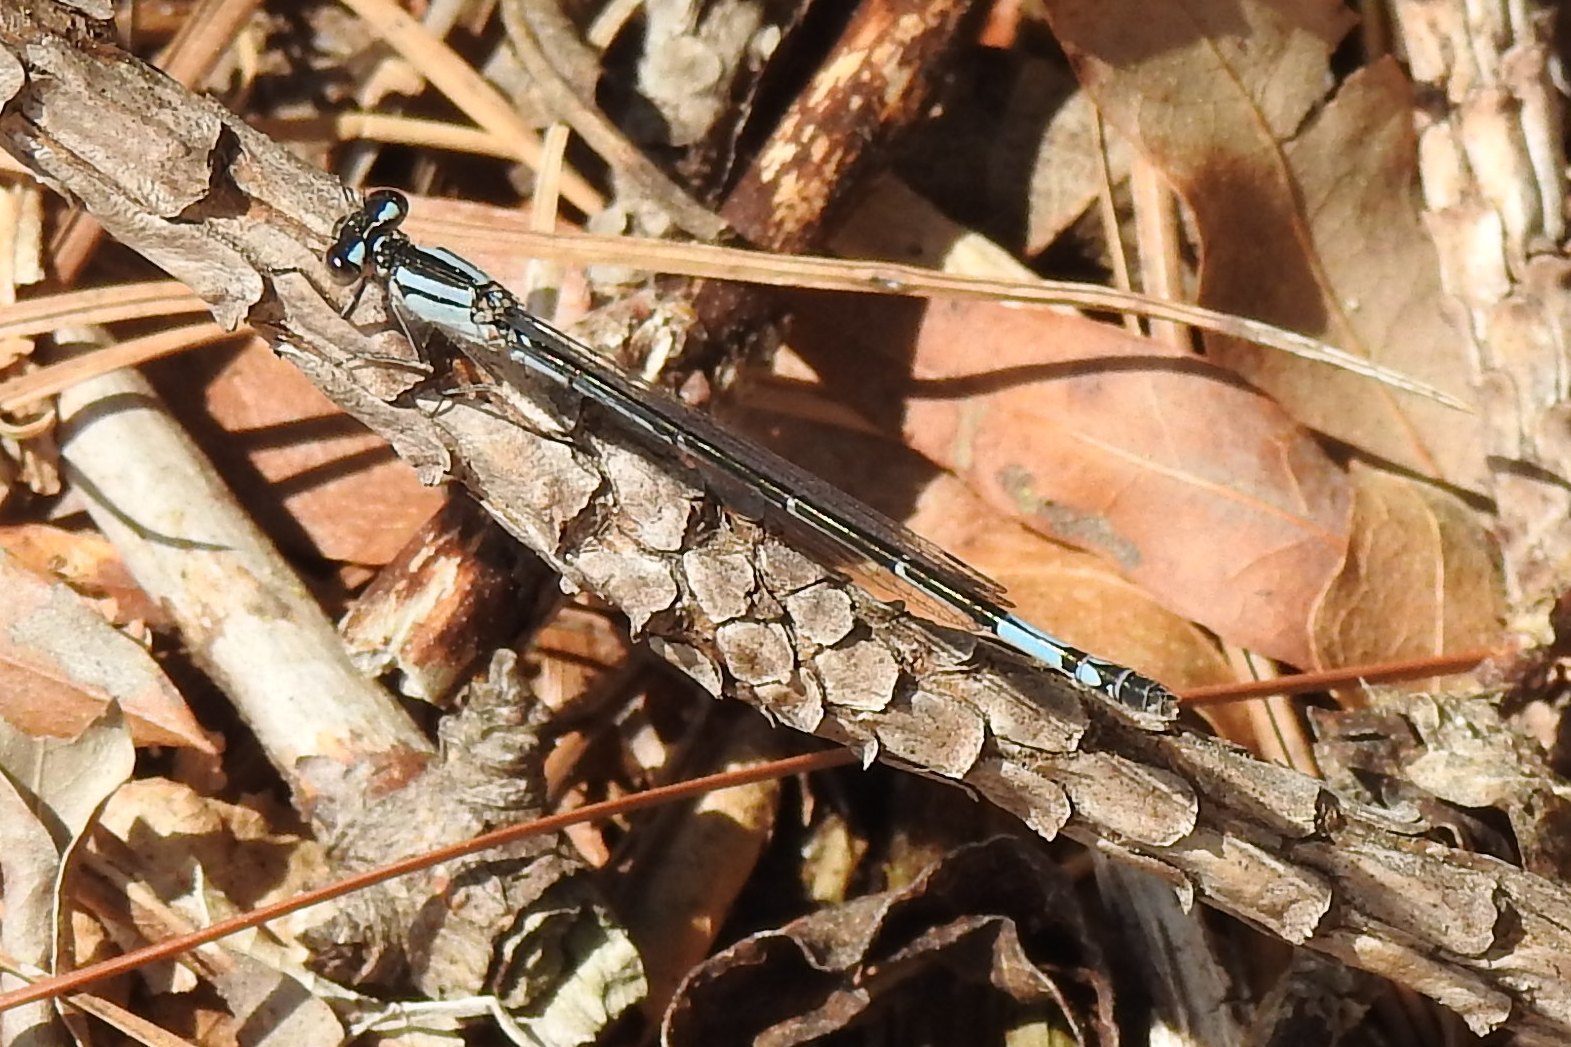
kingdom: Animalia
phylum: Arthropoda
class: Insecta
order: Odonata
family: Coenagrionidae
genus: Enallagma
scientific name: Enallagma aspersum
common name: Azure bluet
